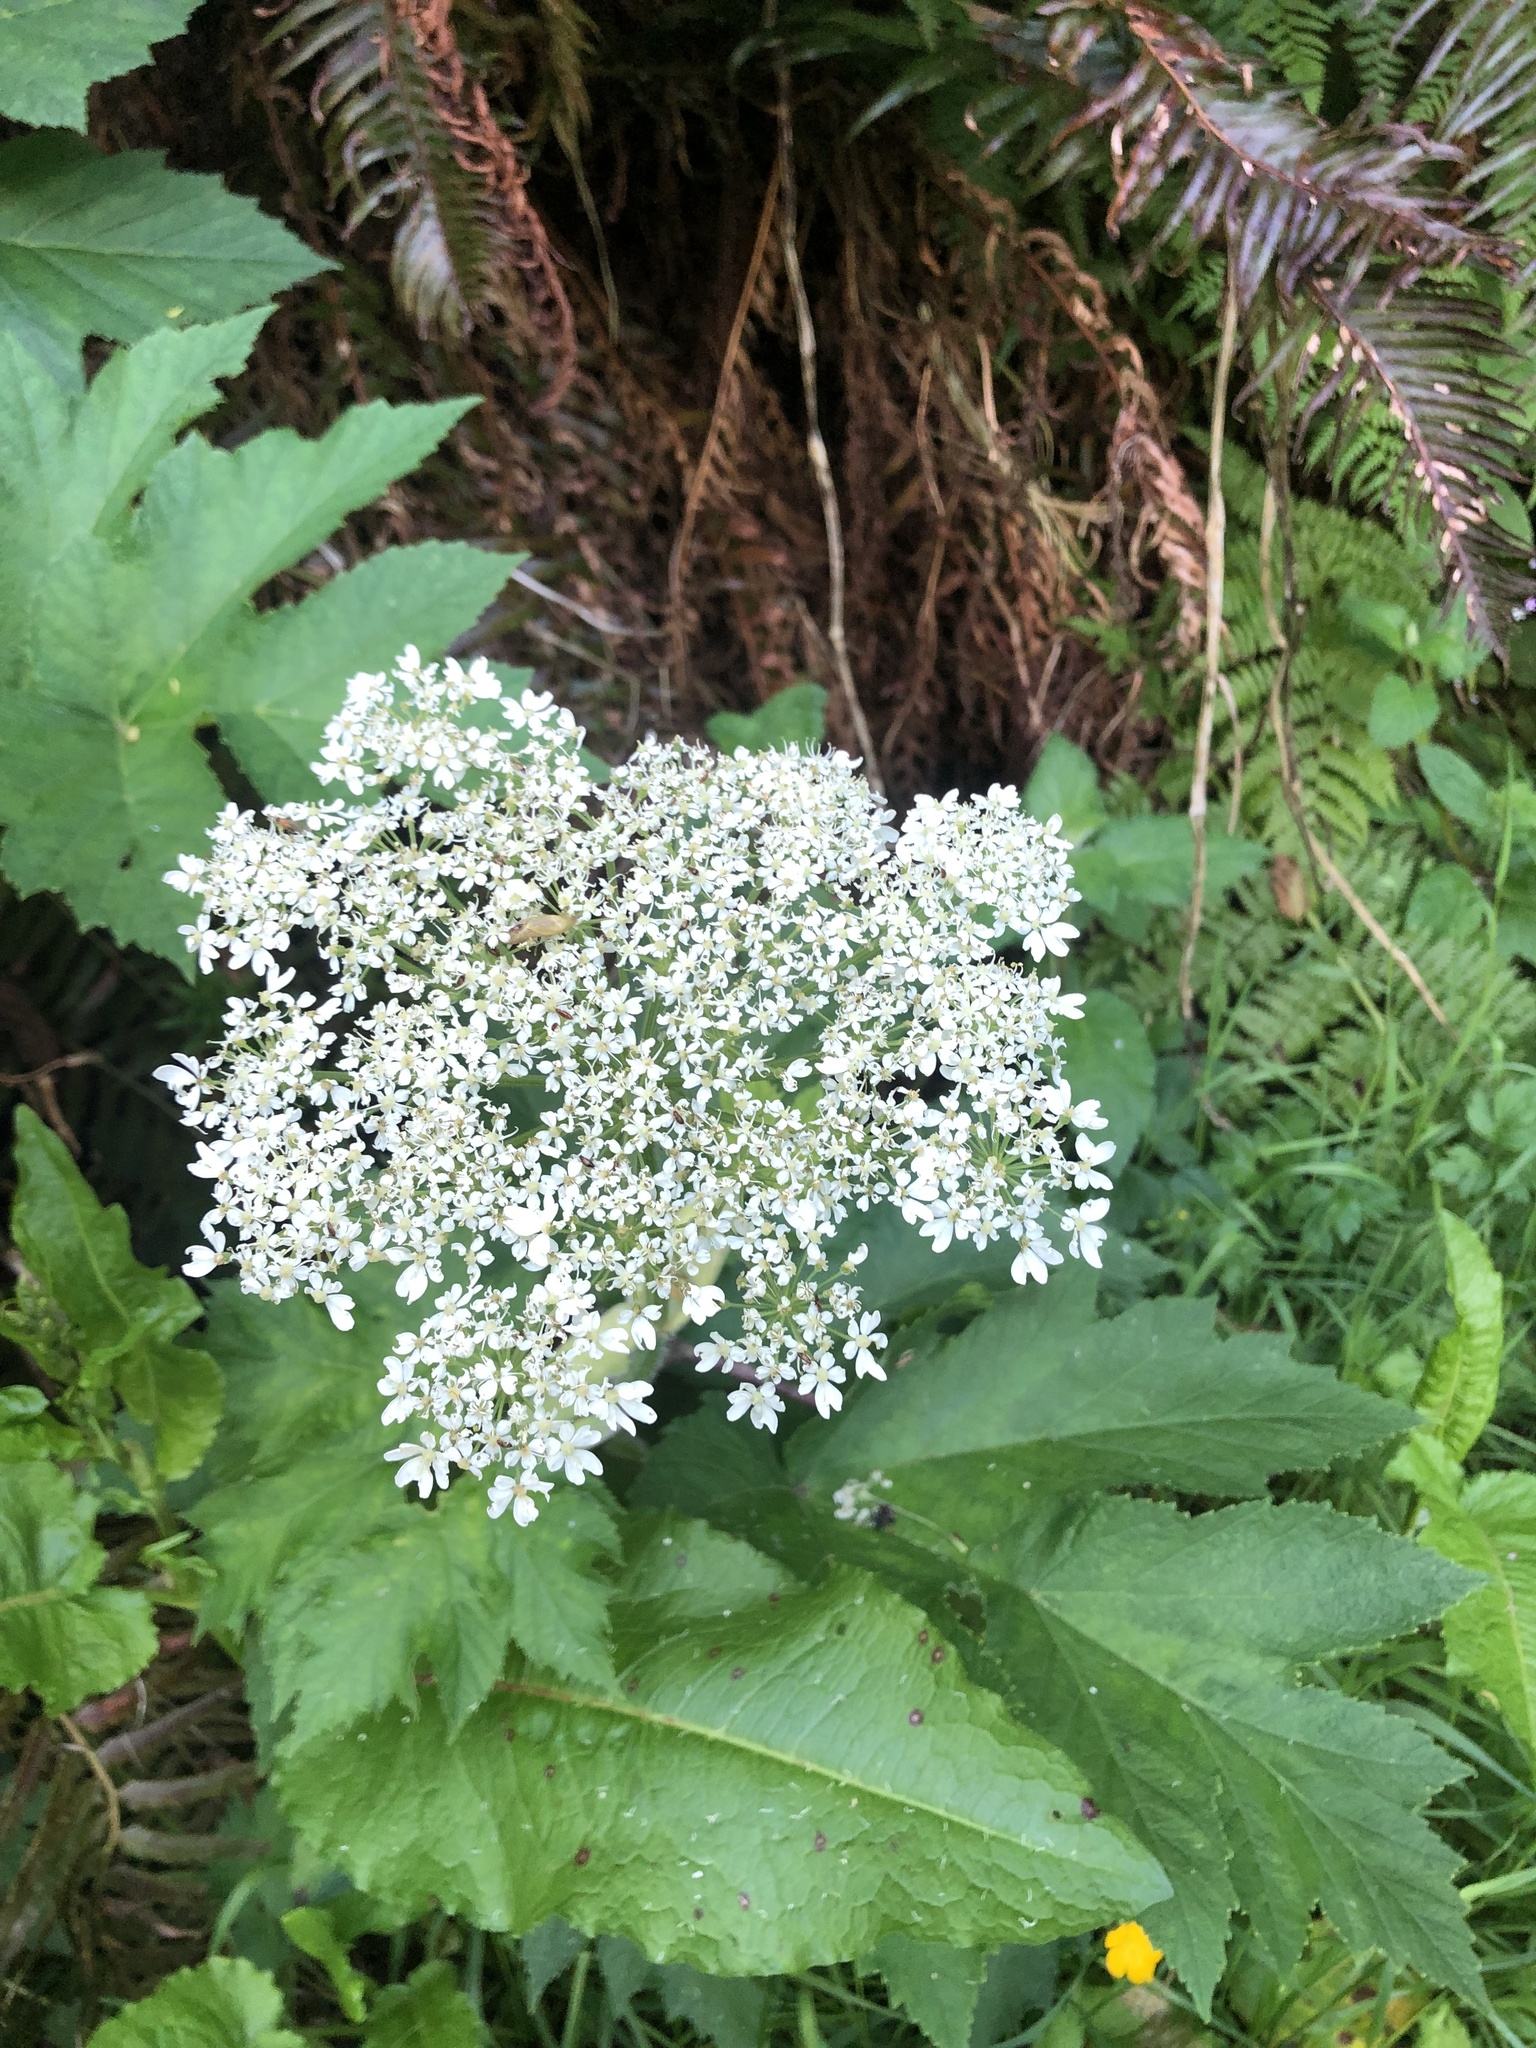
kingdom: Plantae
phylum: Tracheophyta
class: Magnoliopsida
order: Apiales
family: Apiaceae
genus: Heracleum
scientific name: Heracleum maximum
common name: American cow parsnip
